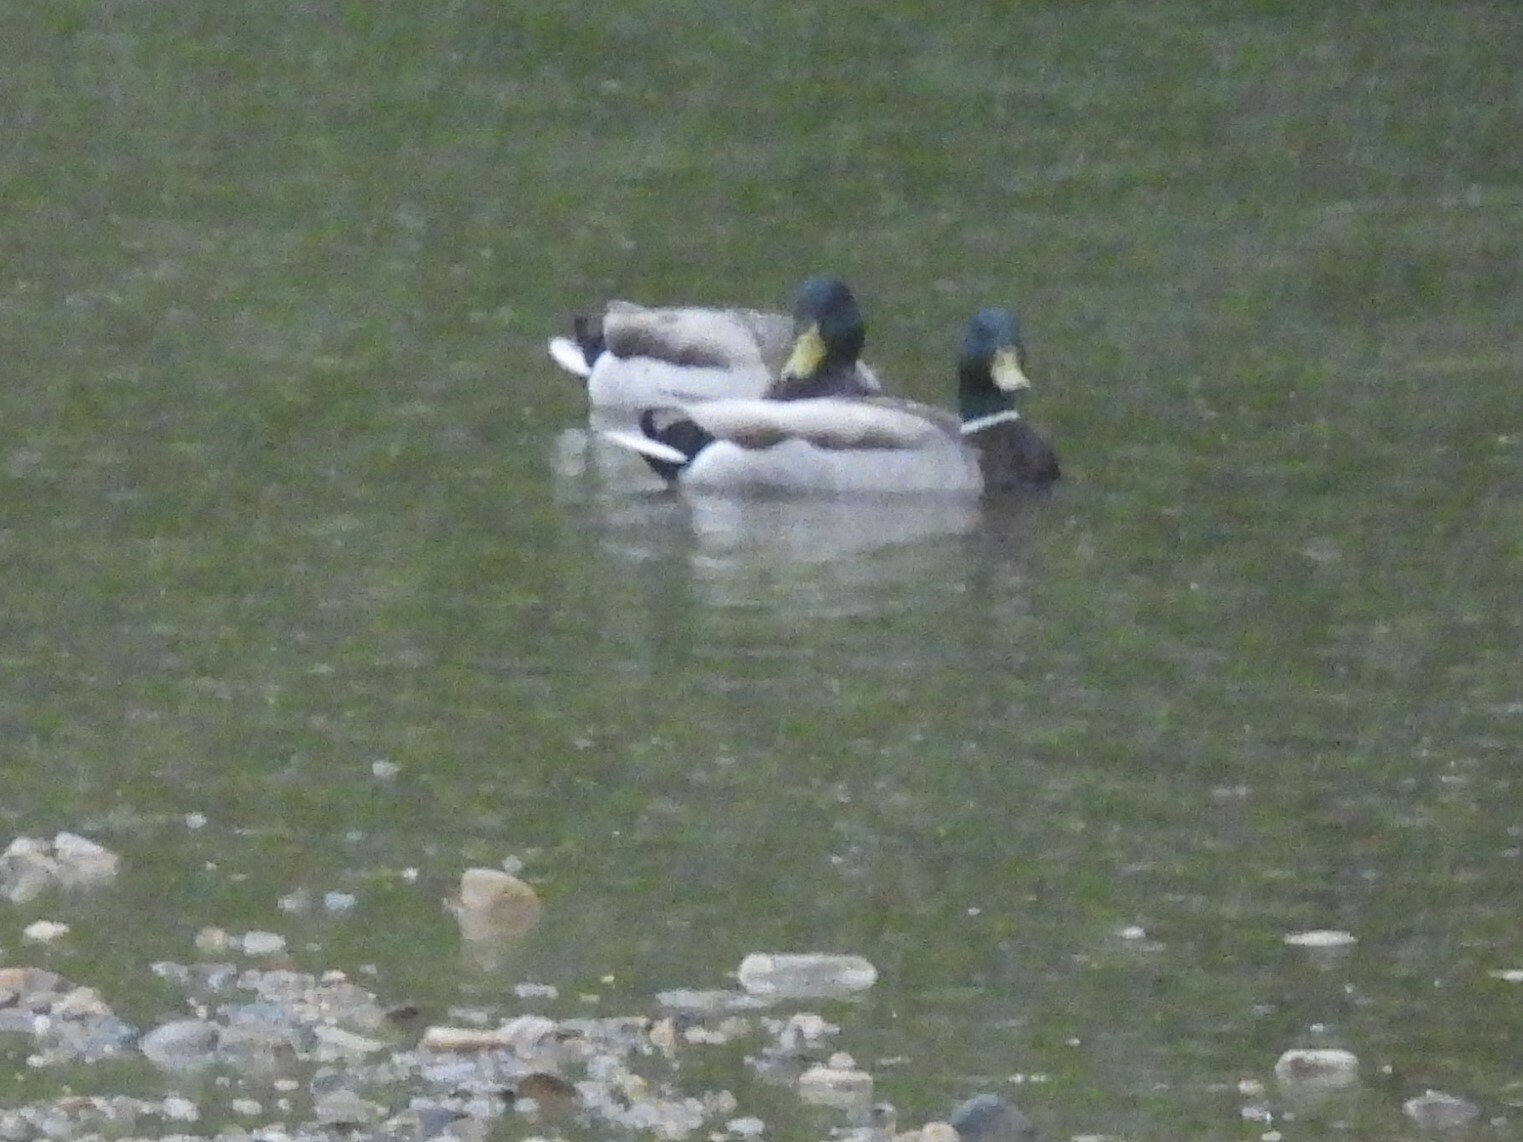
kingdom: Animalia
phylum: Chordata
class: Aves
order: Anseriformes
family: Anatidae
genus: Anas
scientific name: Anas platyrhynchos
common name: Mallard
